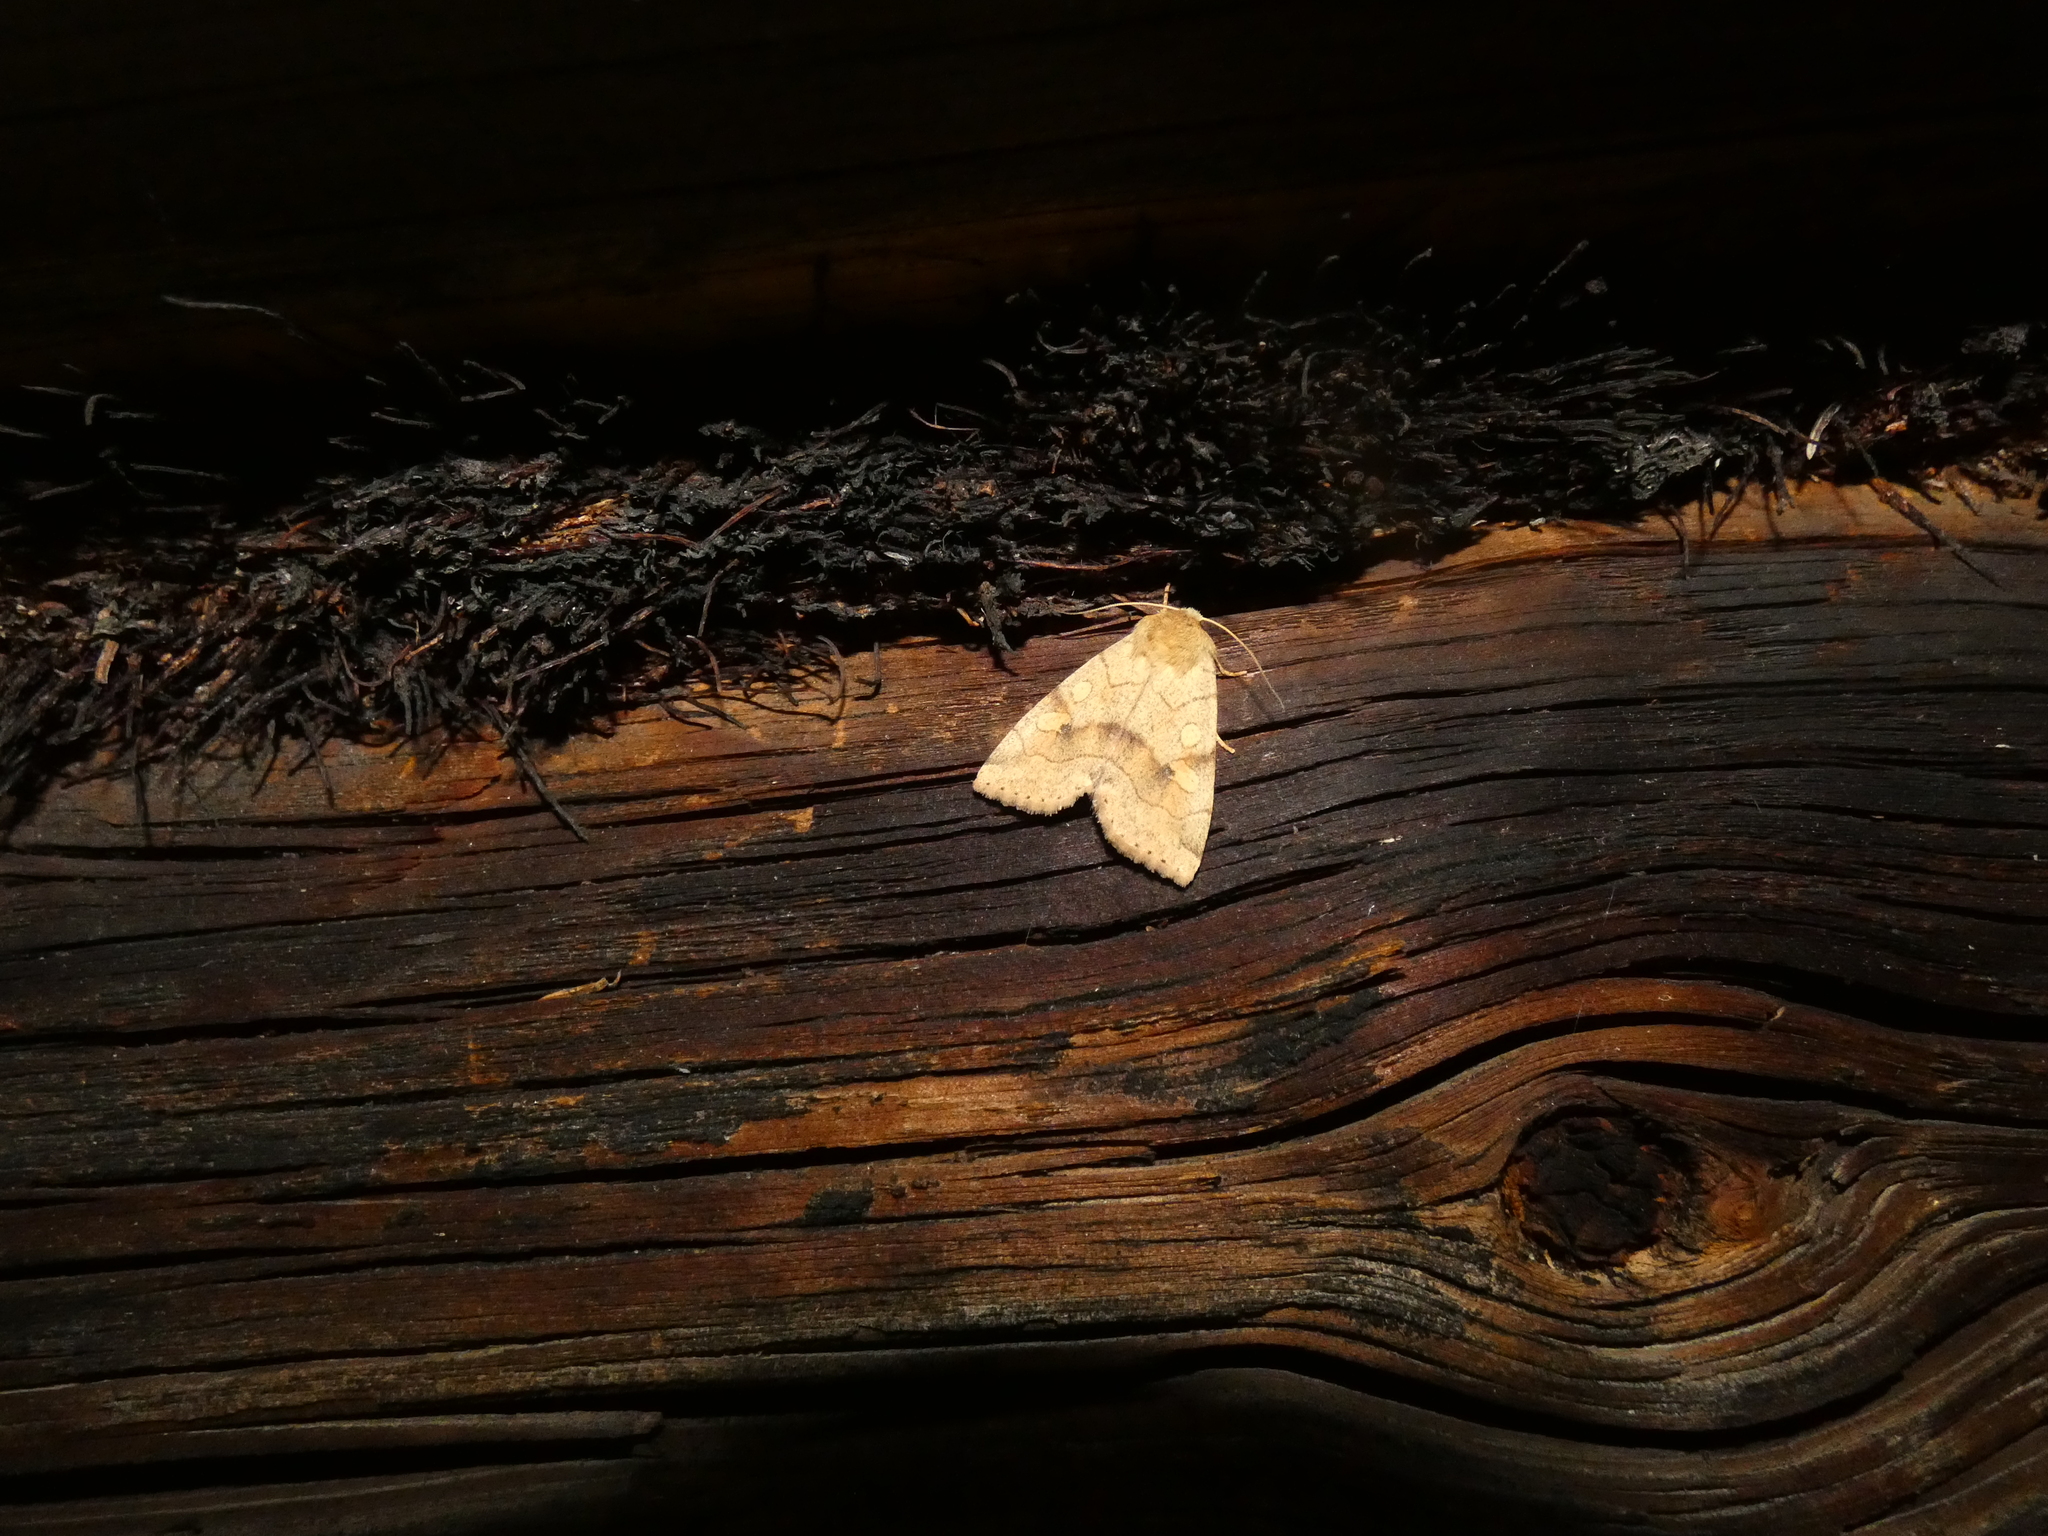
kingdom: Animalia
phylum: Arthropoda
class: Insecta
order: Lepidoptera
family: Noctuidae
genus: Enargia
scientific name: Enargia paleacea
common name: Angle-striped sallow
